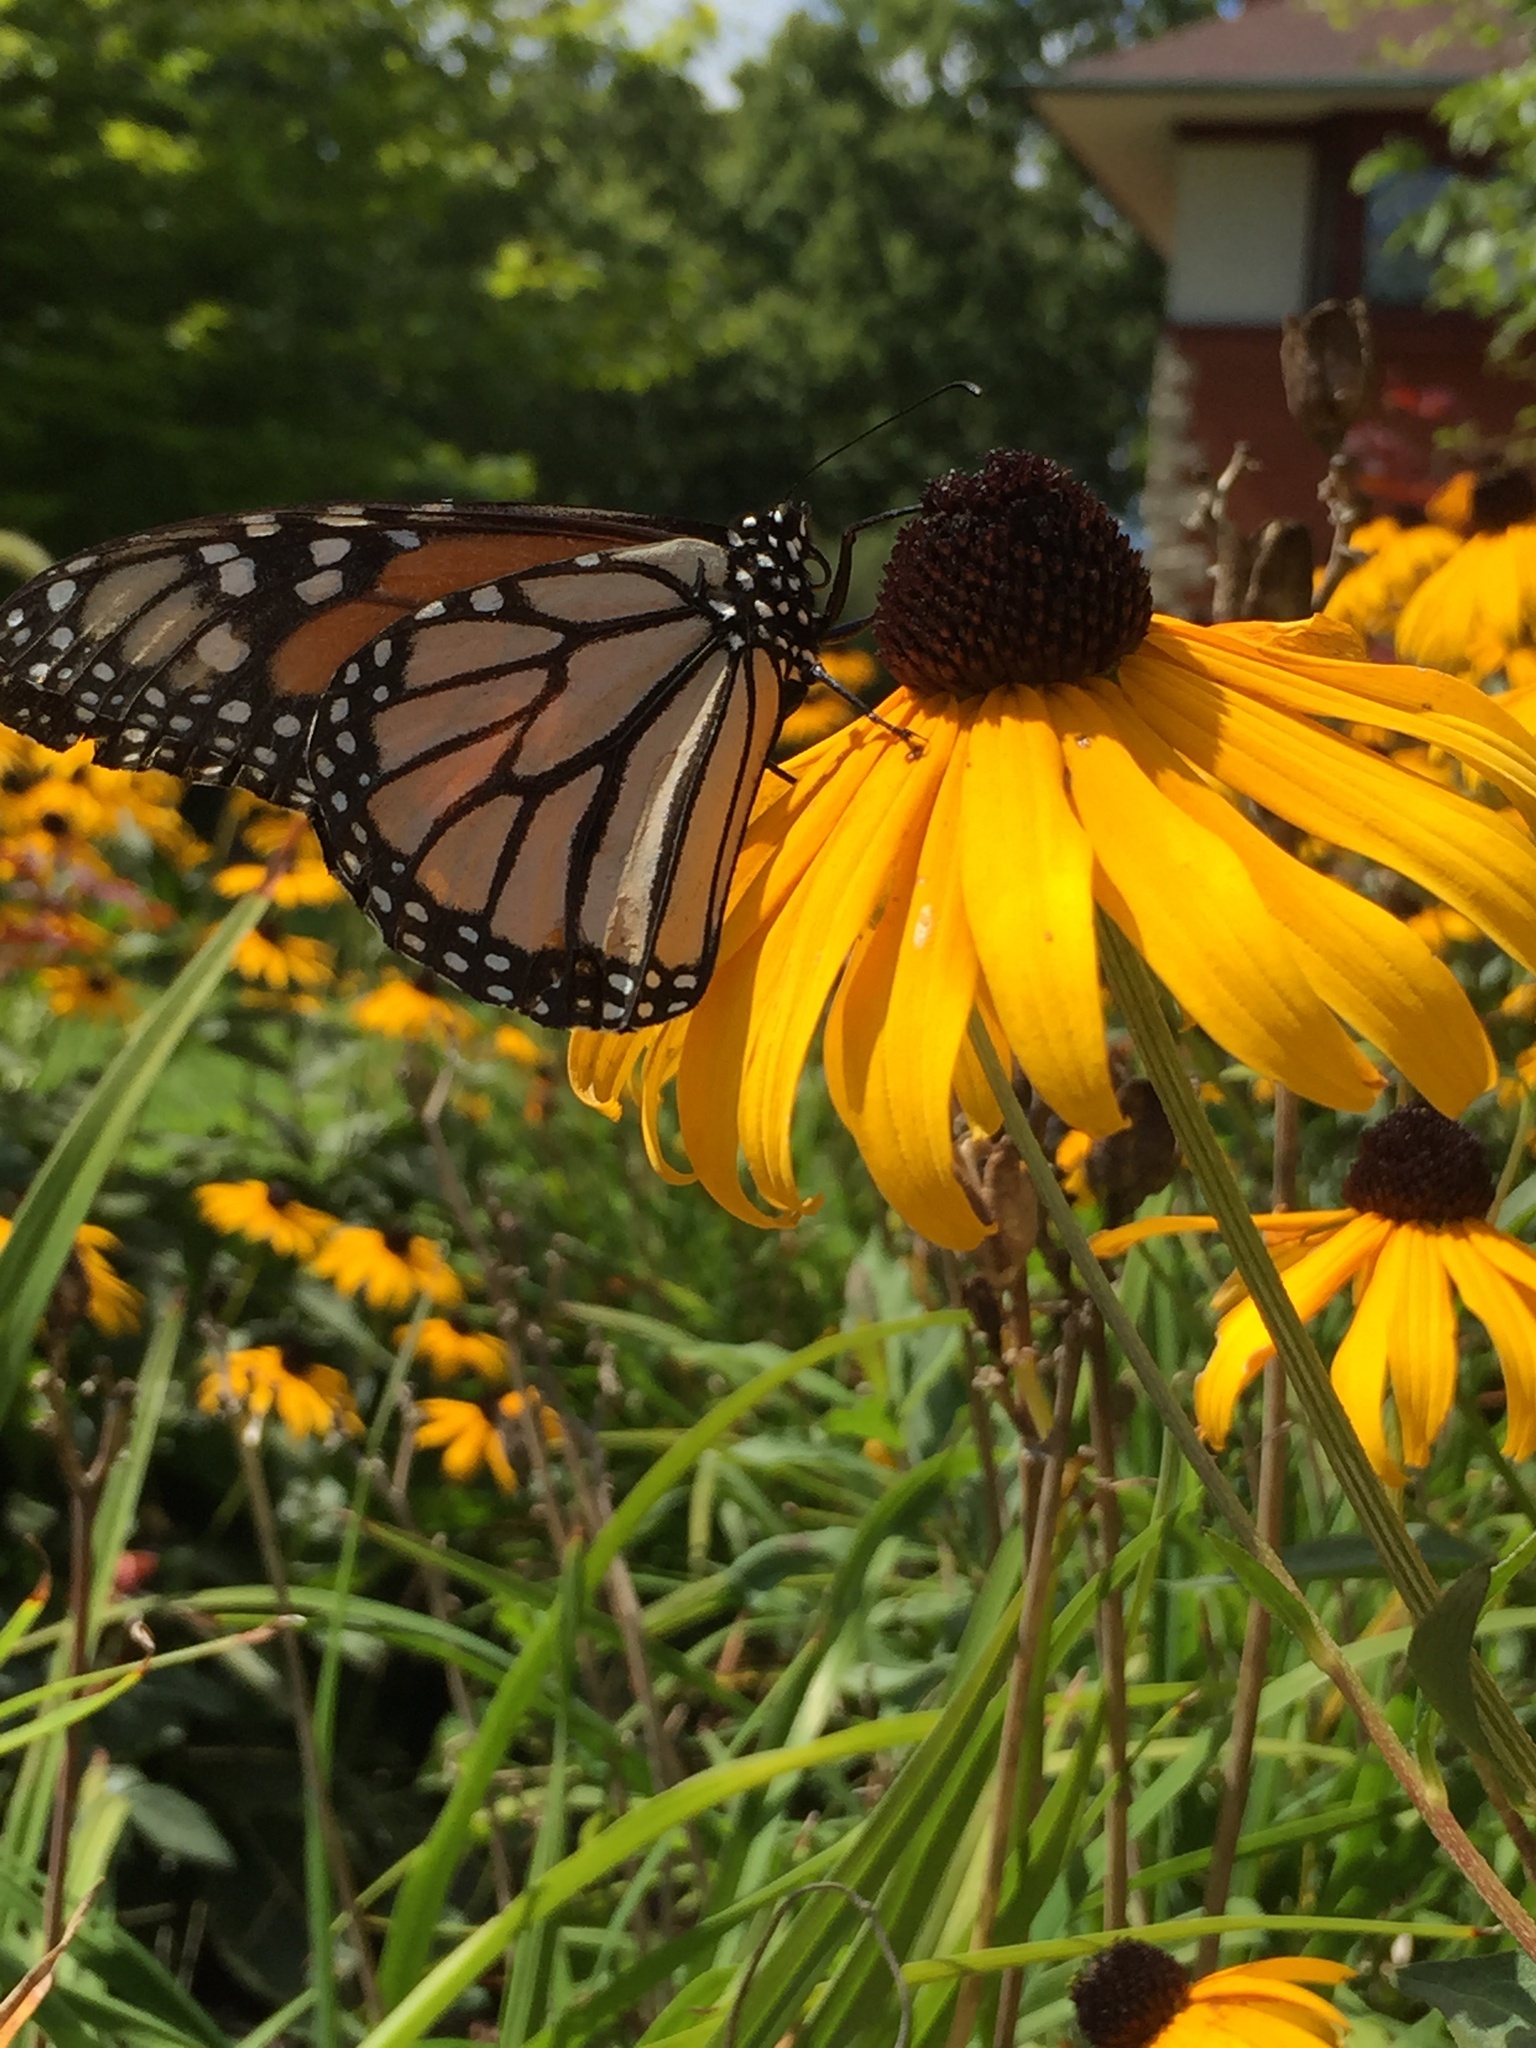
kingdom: Animalia
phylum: Arthropoda
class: Insecta
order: Lepidoptera
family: Nymphalidae
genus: Danaus
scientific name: Danaus plexippus
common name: Monarch
